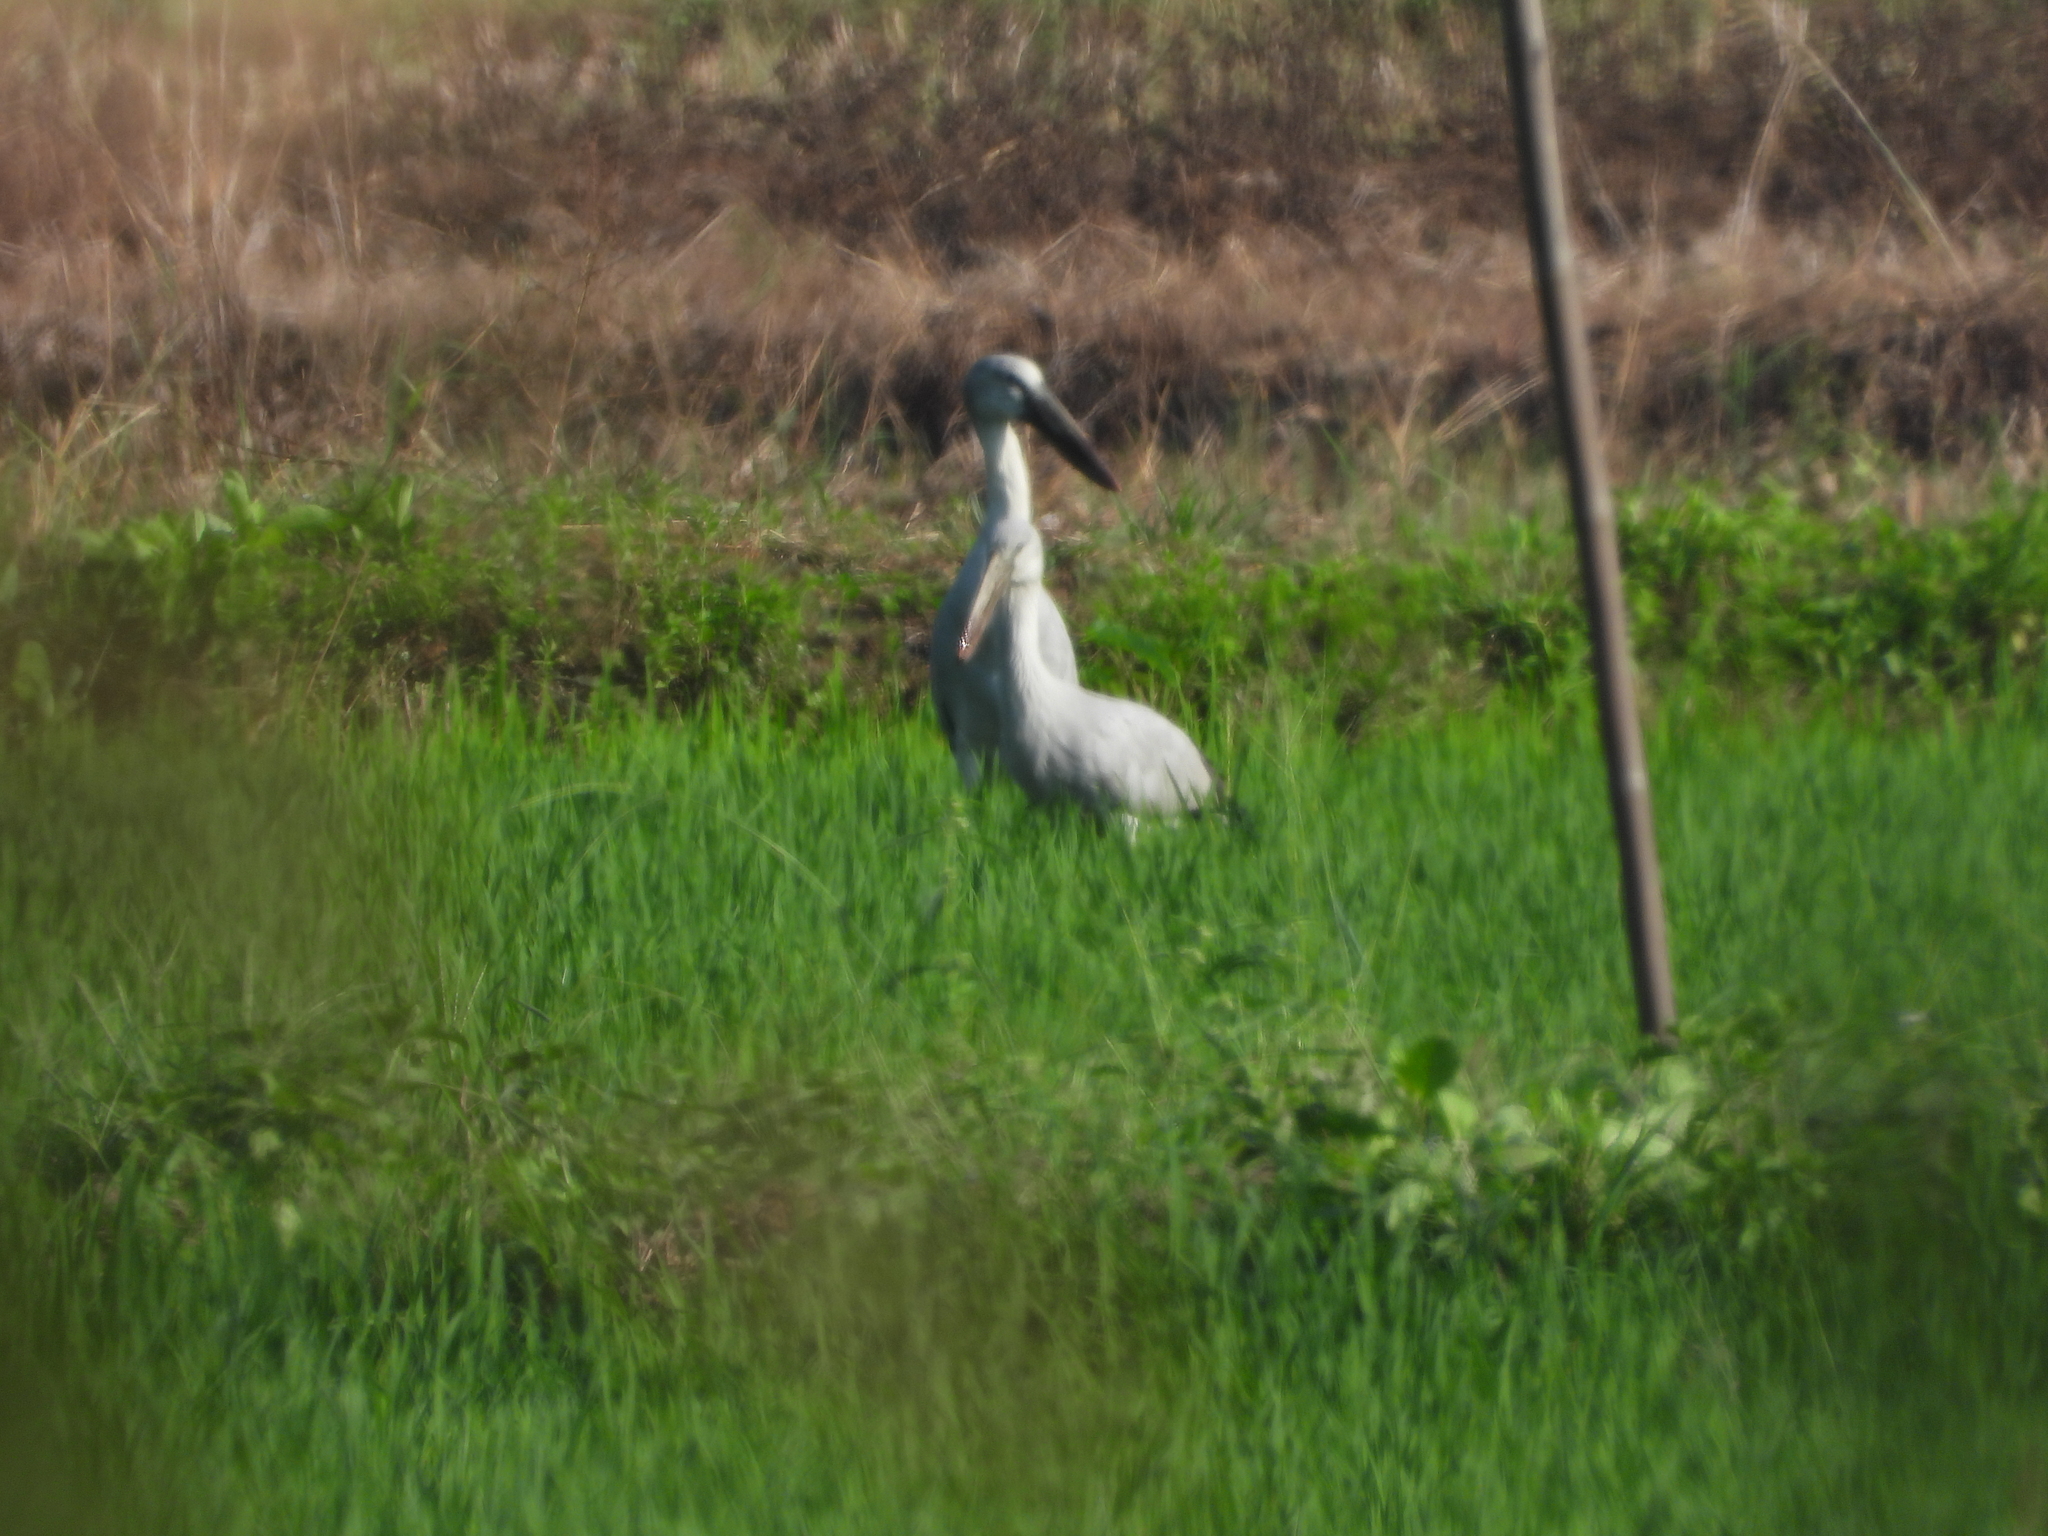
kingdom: Animalia
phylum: Chordata
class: Aves
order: Ciconiiformes
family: Ciconiidae
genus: Anastomus
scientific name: Anastomus oscitans
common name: Asian openbill
